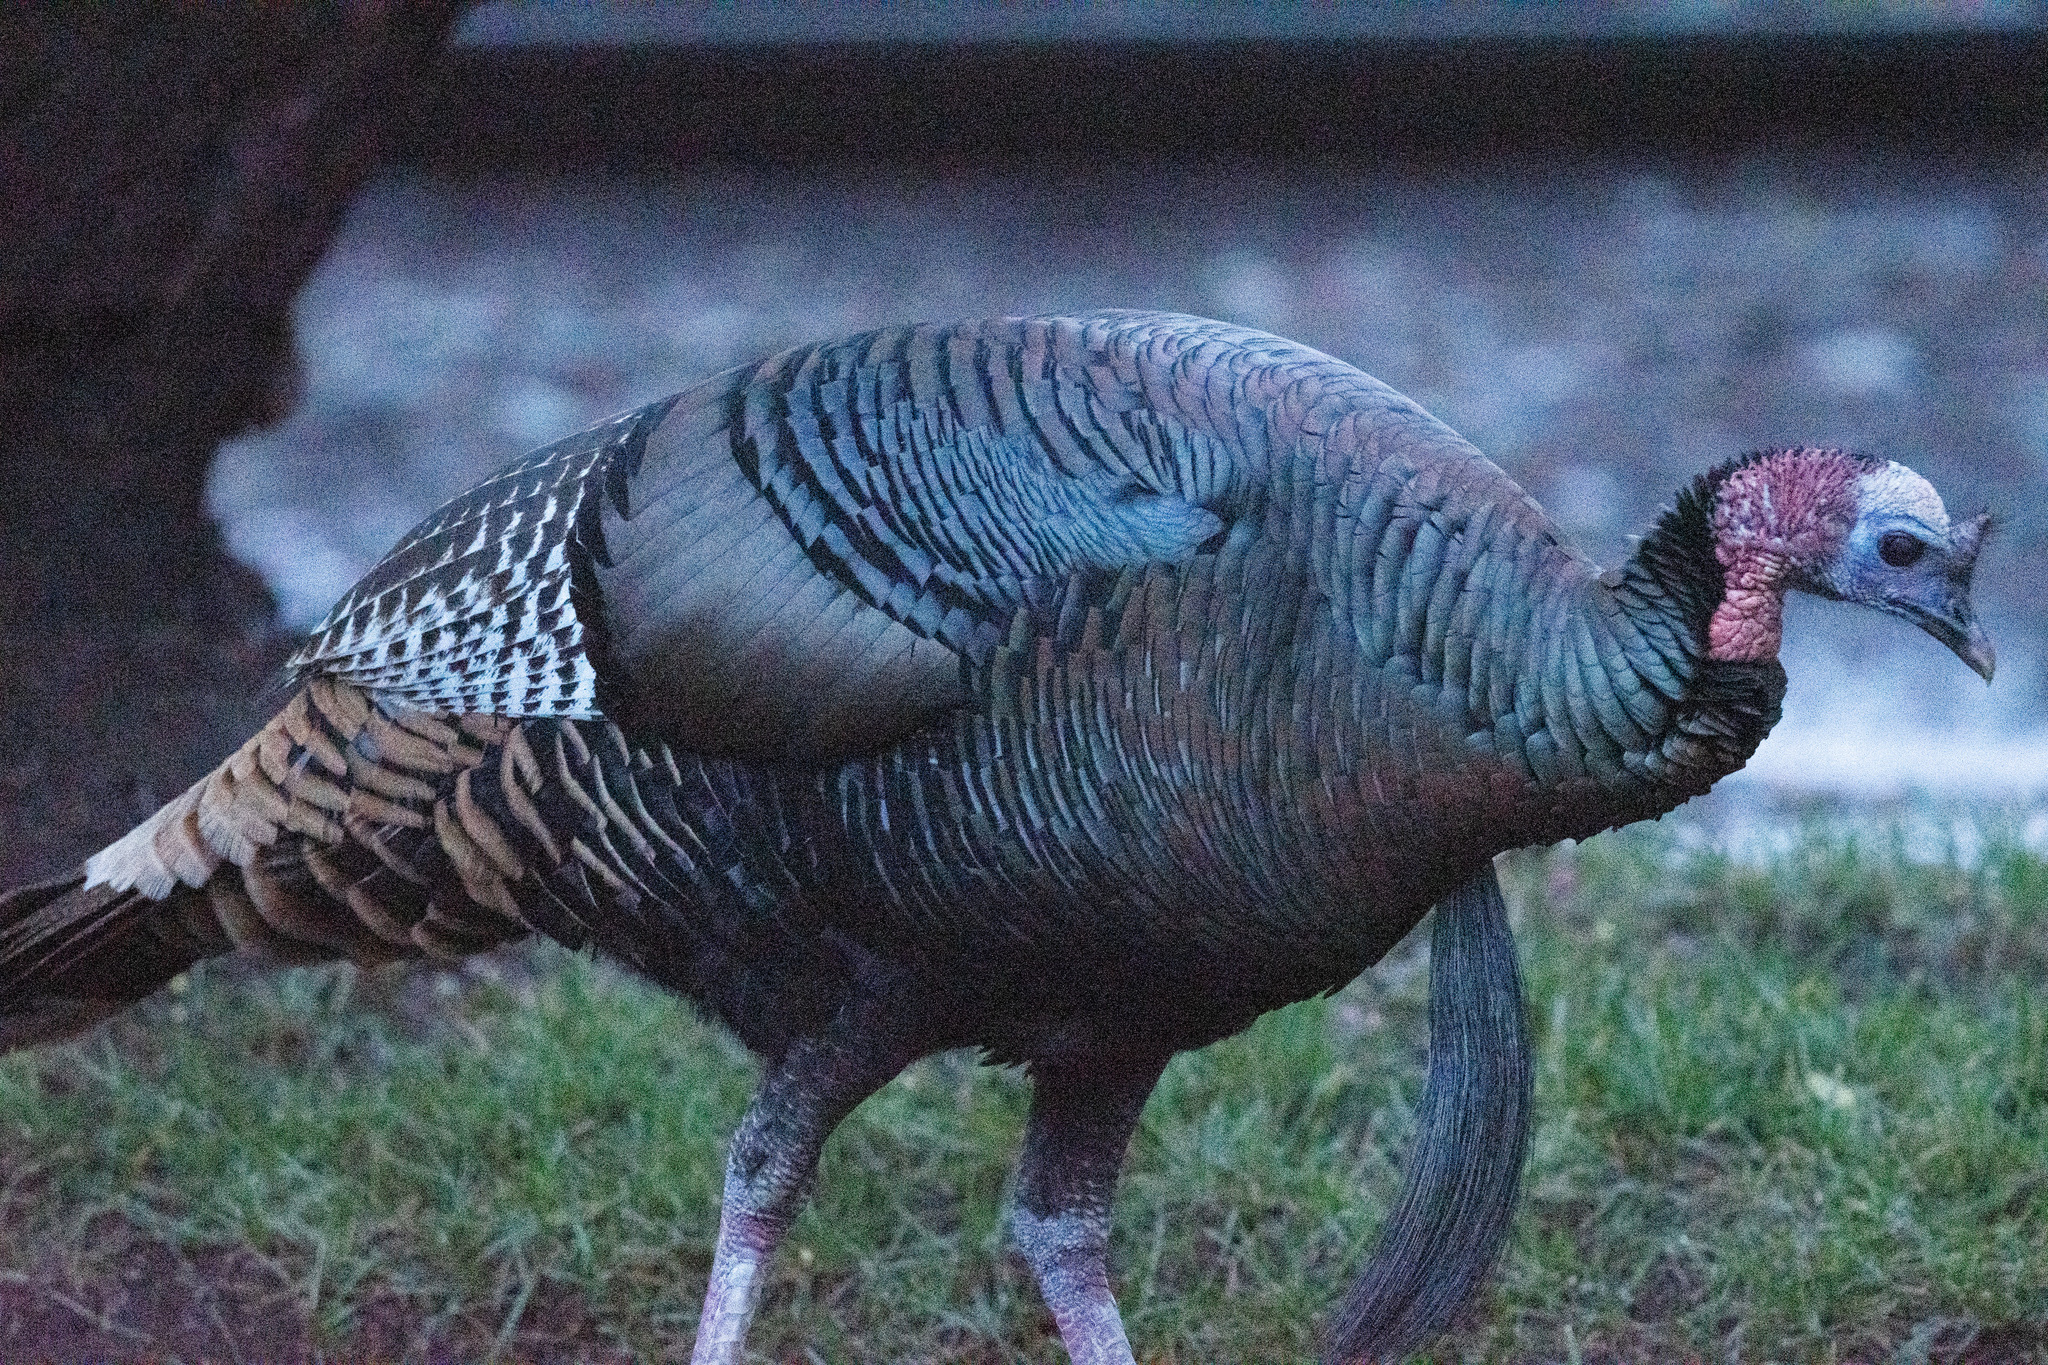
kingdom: Animalia
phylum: Chordata
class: Aves
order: Galliformes
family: Phasianidae
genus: Meleagris
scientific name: Meleagris gallopavo
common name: Wild turkey
